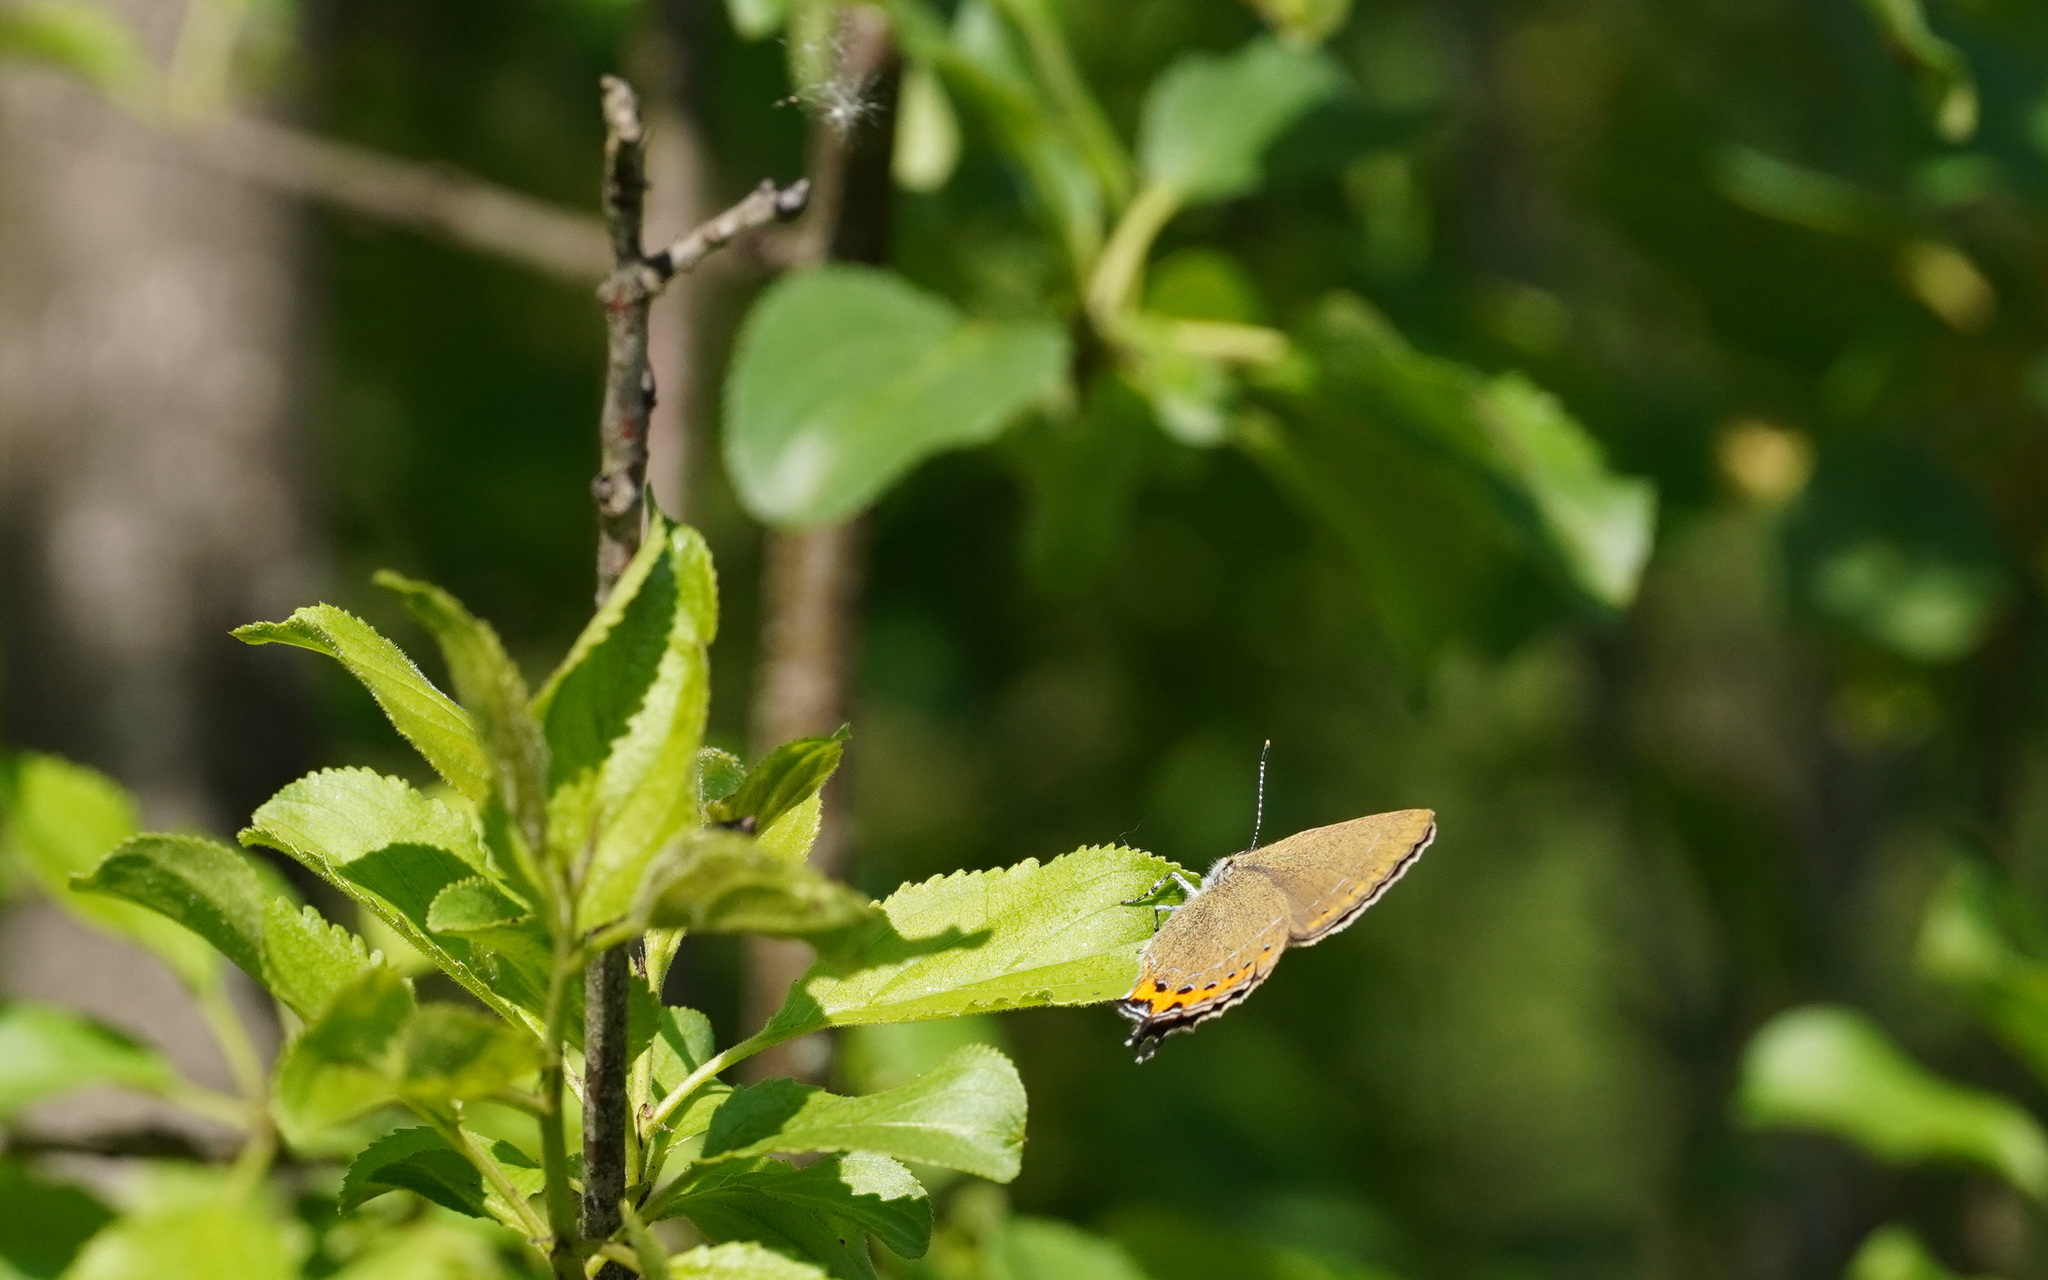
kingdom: Animalia
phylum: Arthropoda
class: Insecta
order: Lepidoptera
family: Lycaenidae
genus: Fixsenia
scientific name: Fixsenia pruni
